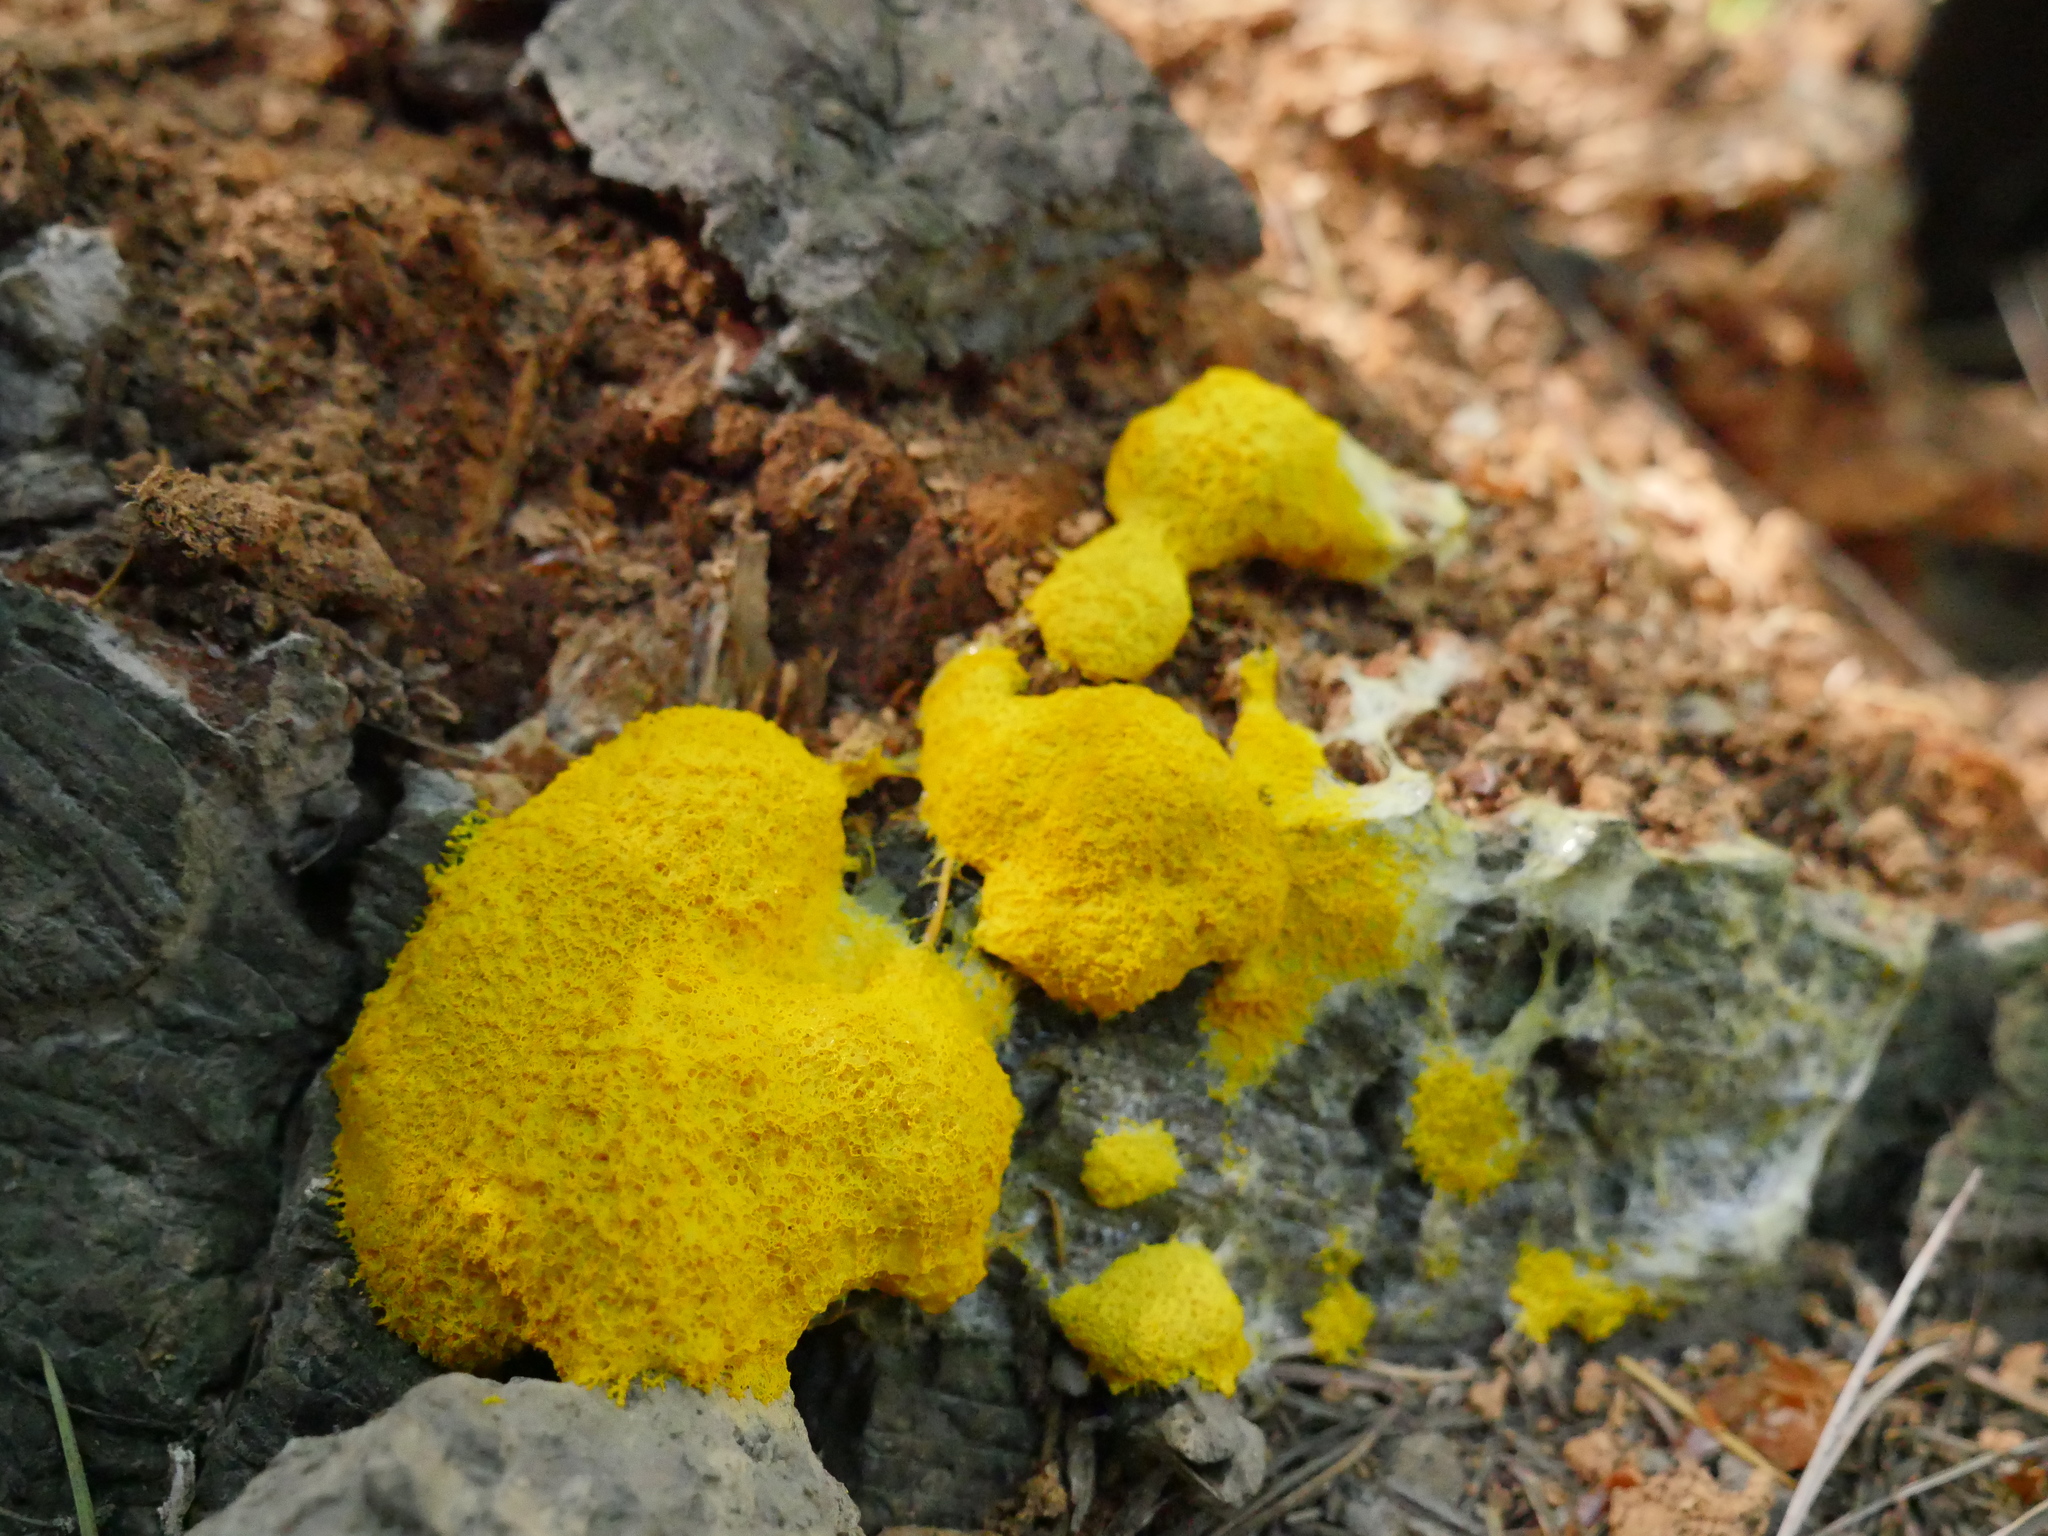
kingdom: Protozoa
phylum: Mycetozoa
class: Myxomycetes
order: Physarales
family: Physaraceae
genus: Fuligo
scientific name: Fuligo septica
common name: Dog vomit slime mold
